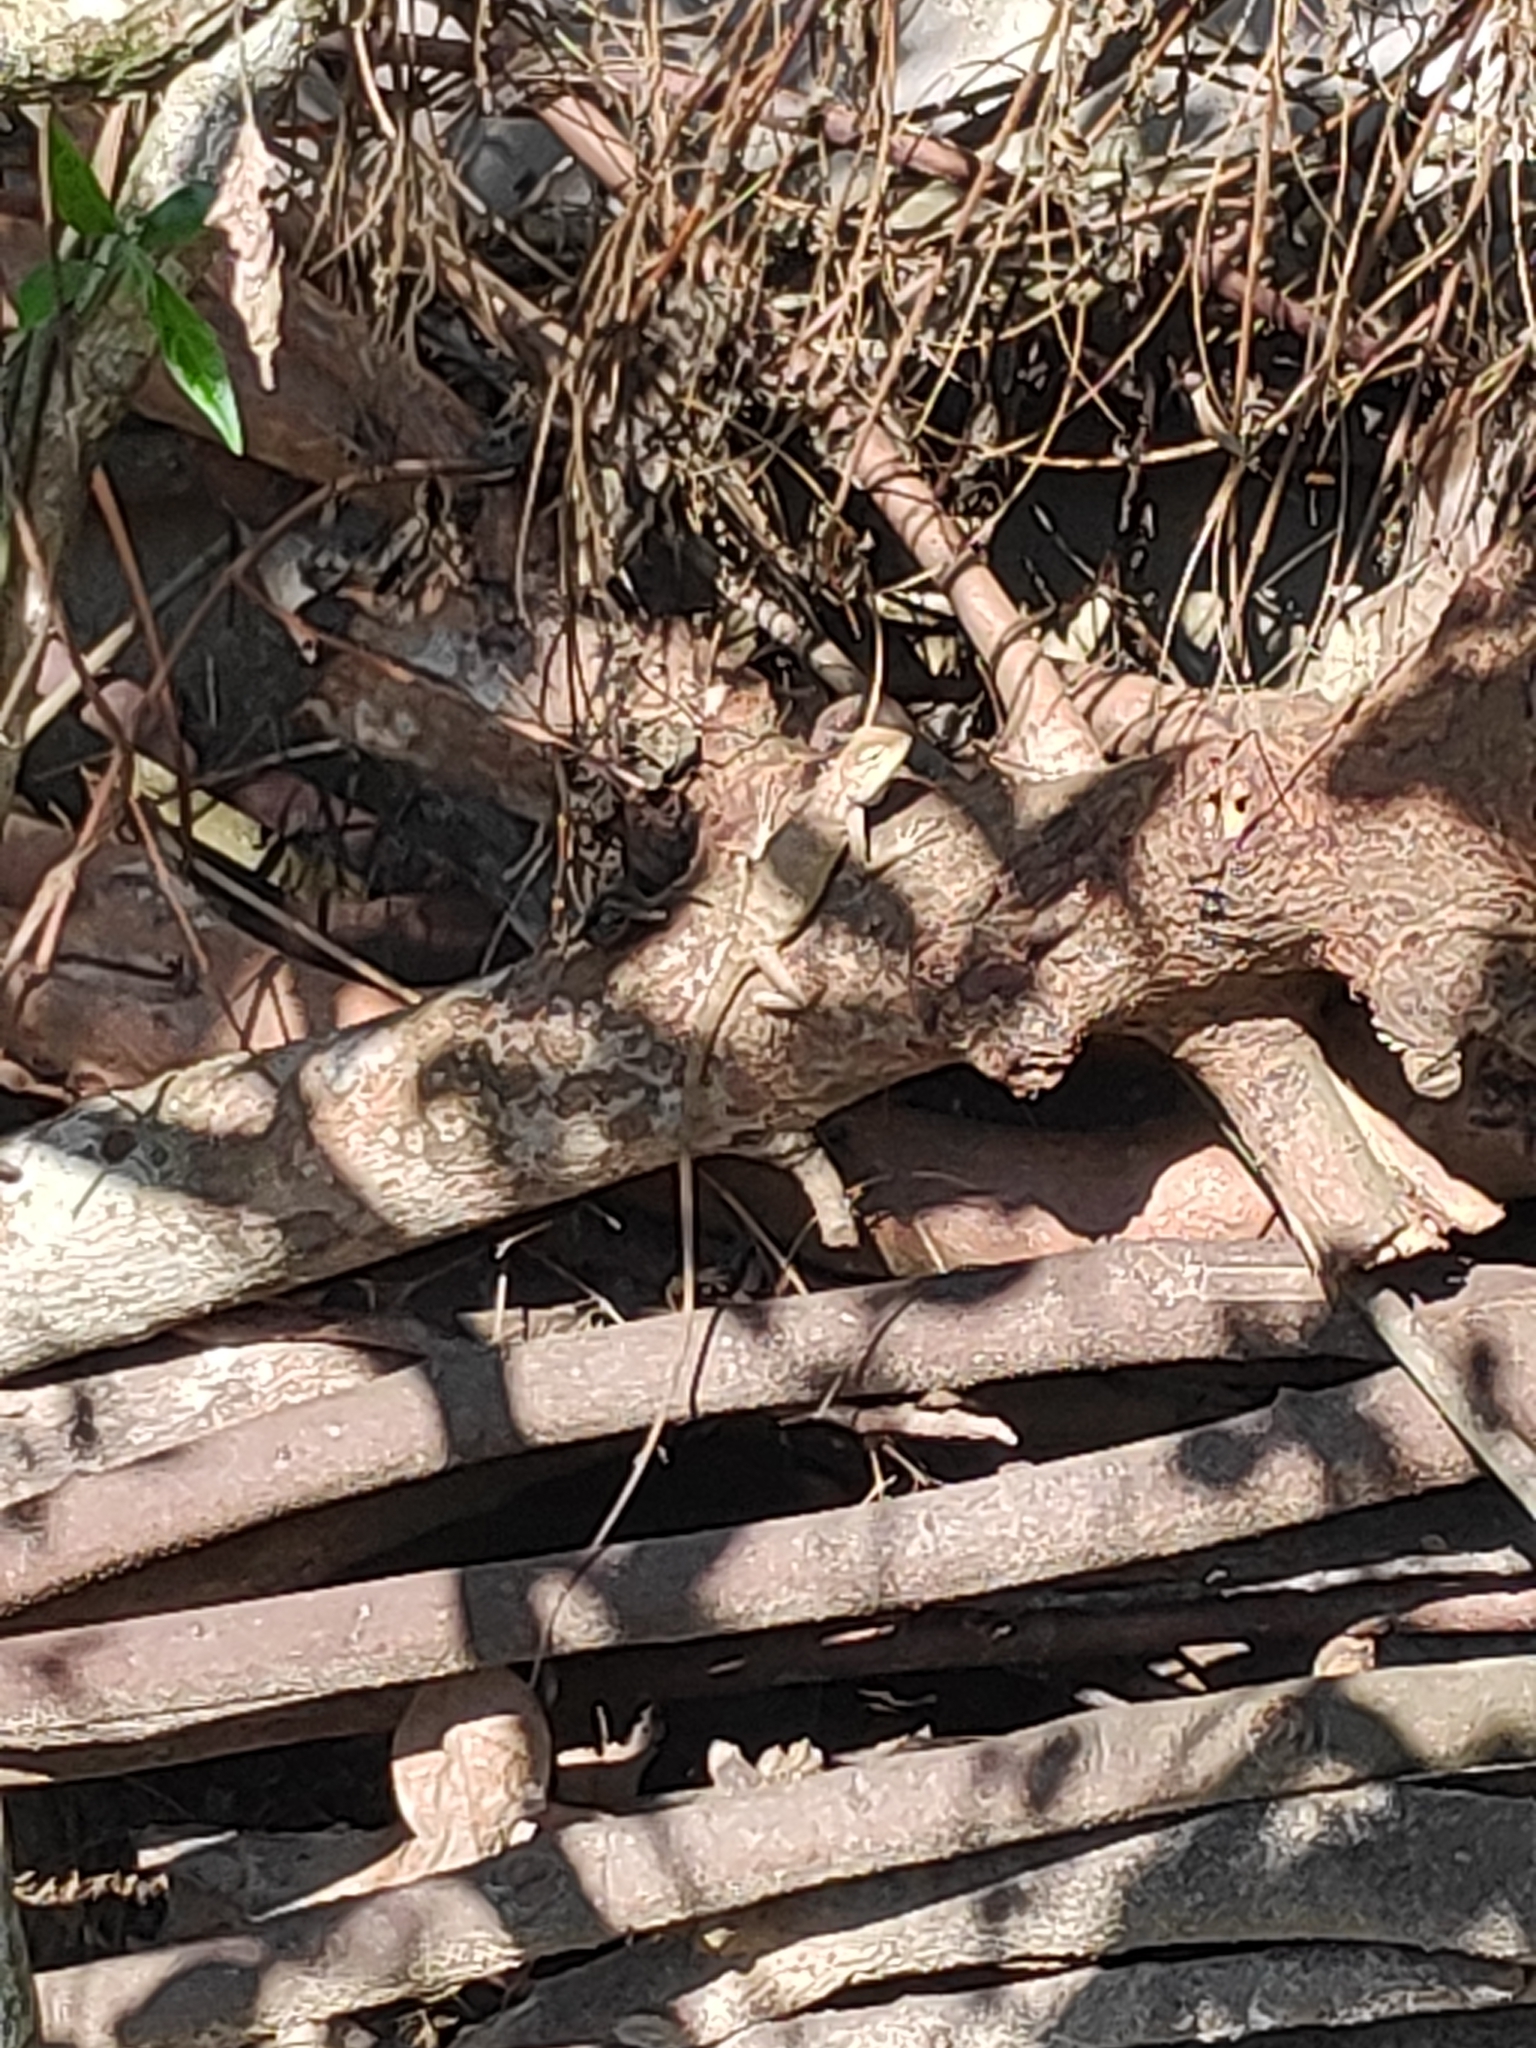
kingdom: Animalia
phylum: Chordata
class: Squamata
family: Agamidae
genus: Calotes
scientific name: Calotes versicolor
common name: Oriental garden lizard
